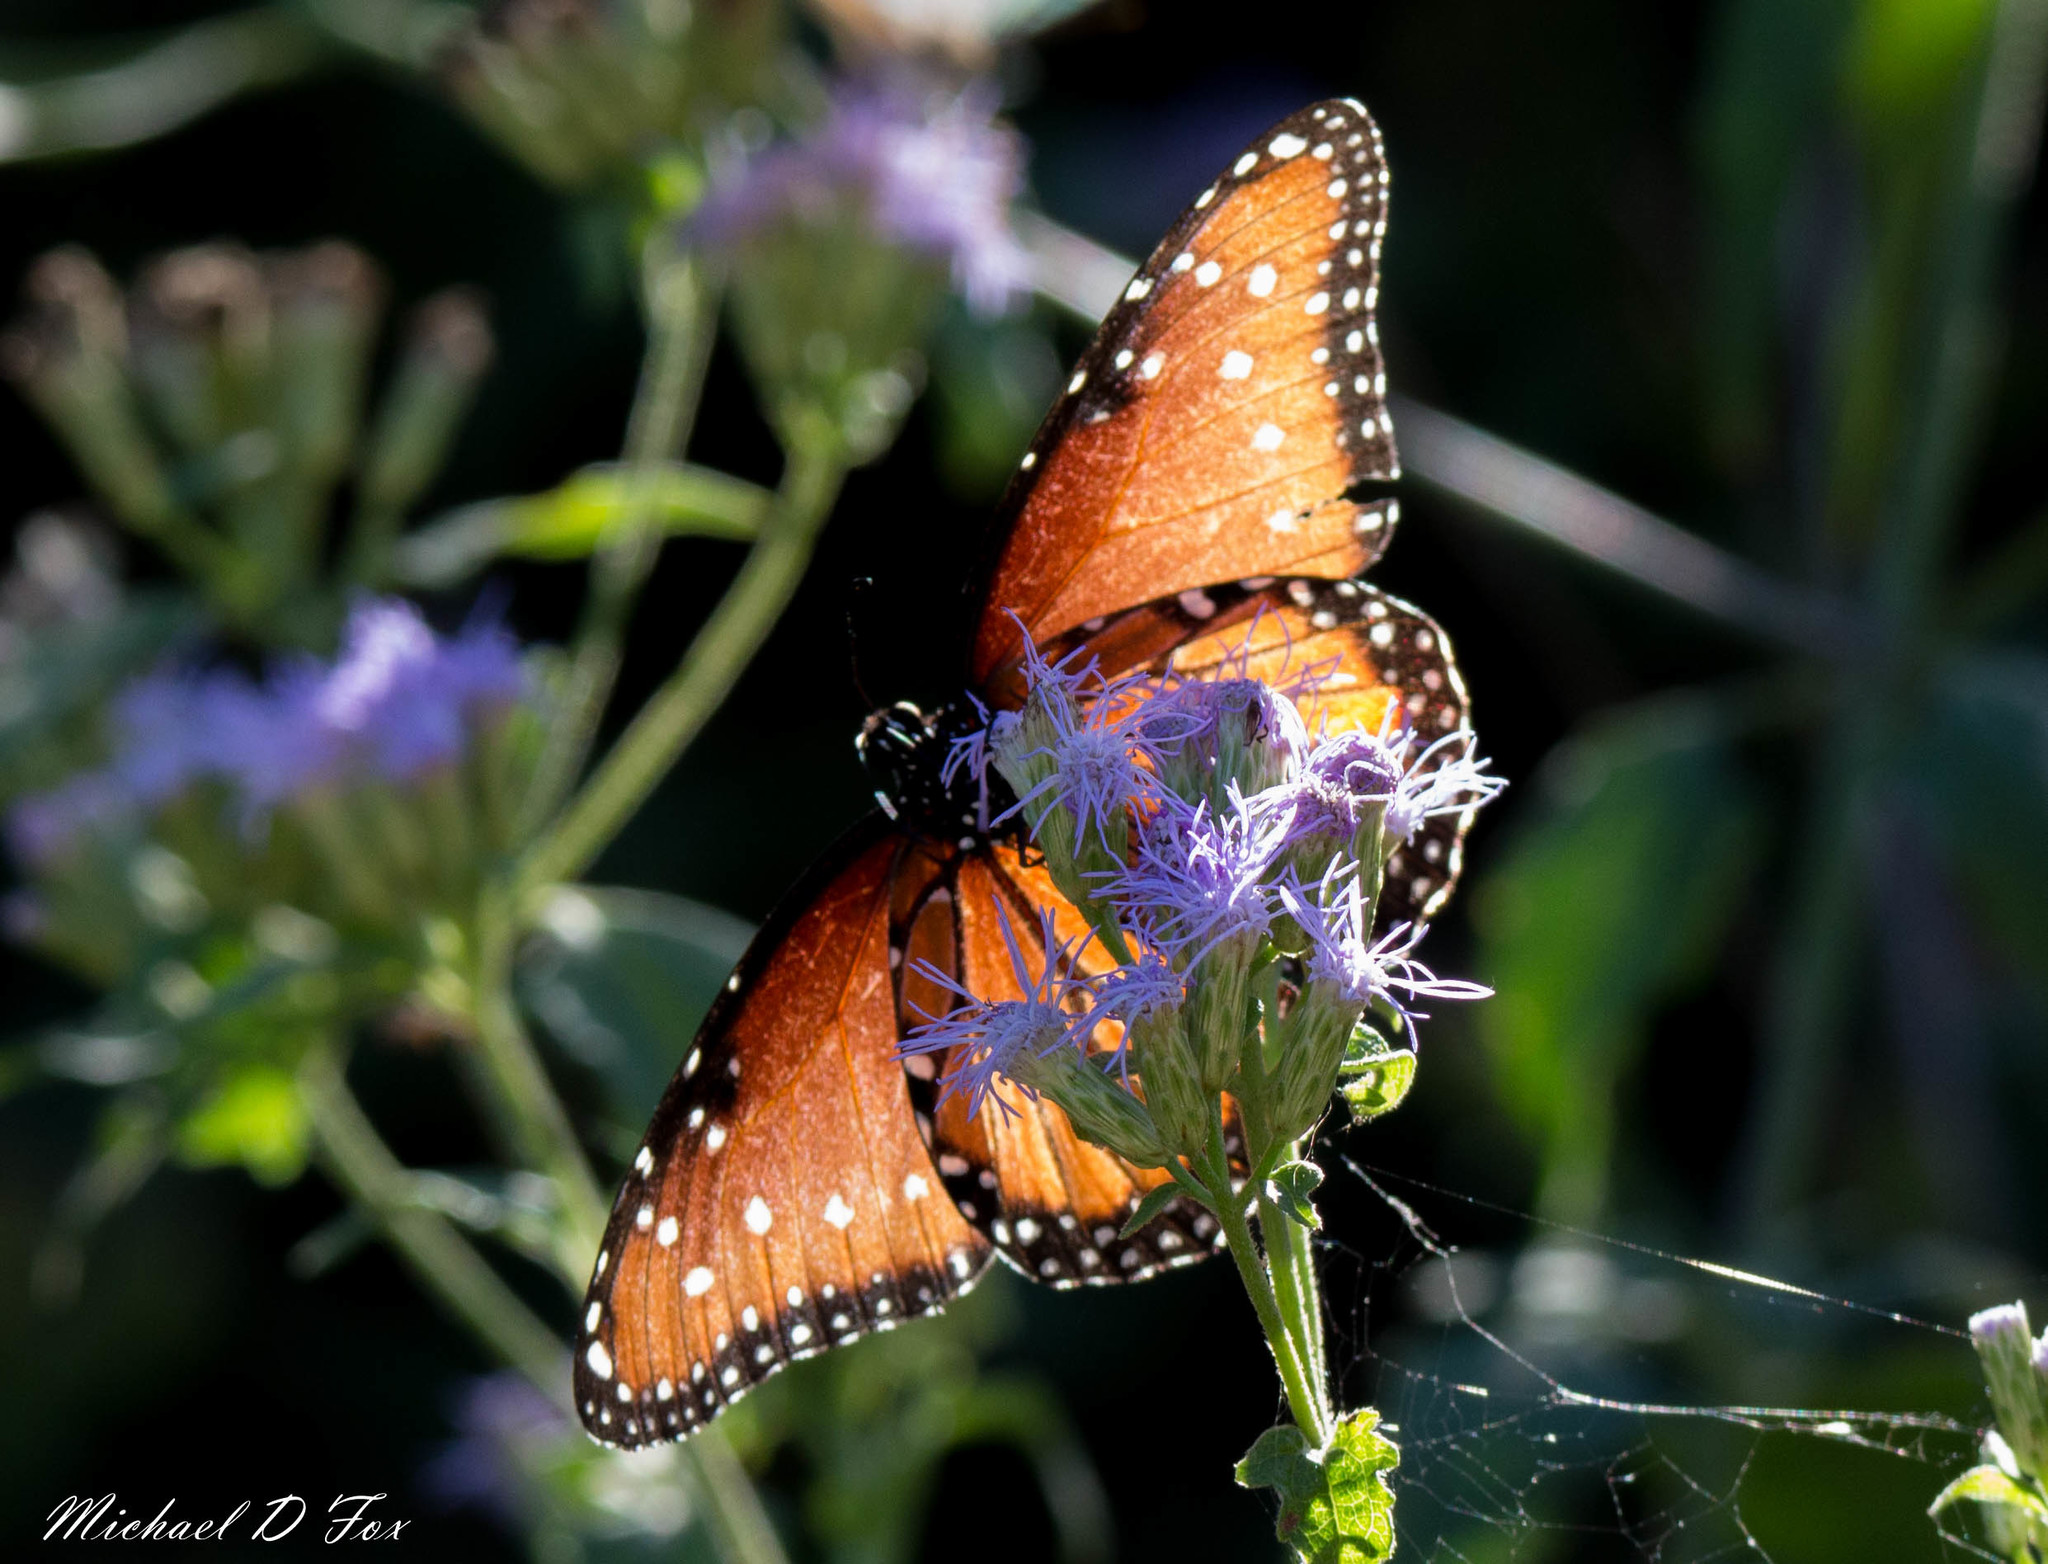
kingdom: Animalia
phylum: Arthropoda
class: Insecta
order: Lepidoptera
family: Nymphalidae
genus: Danaus
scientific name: Danaus gilippus
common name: Queen
